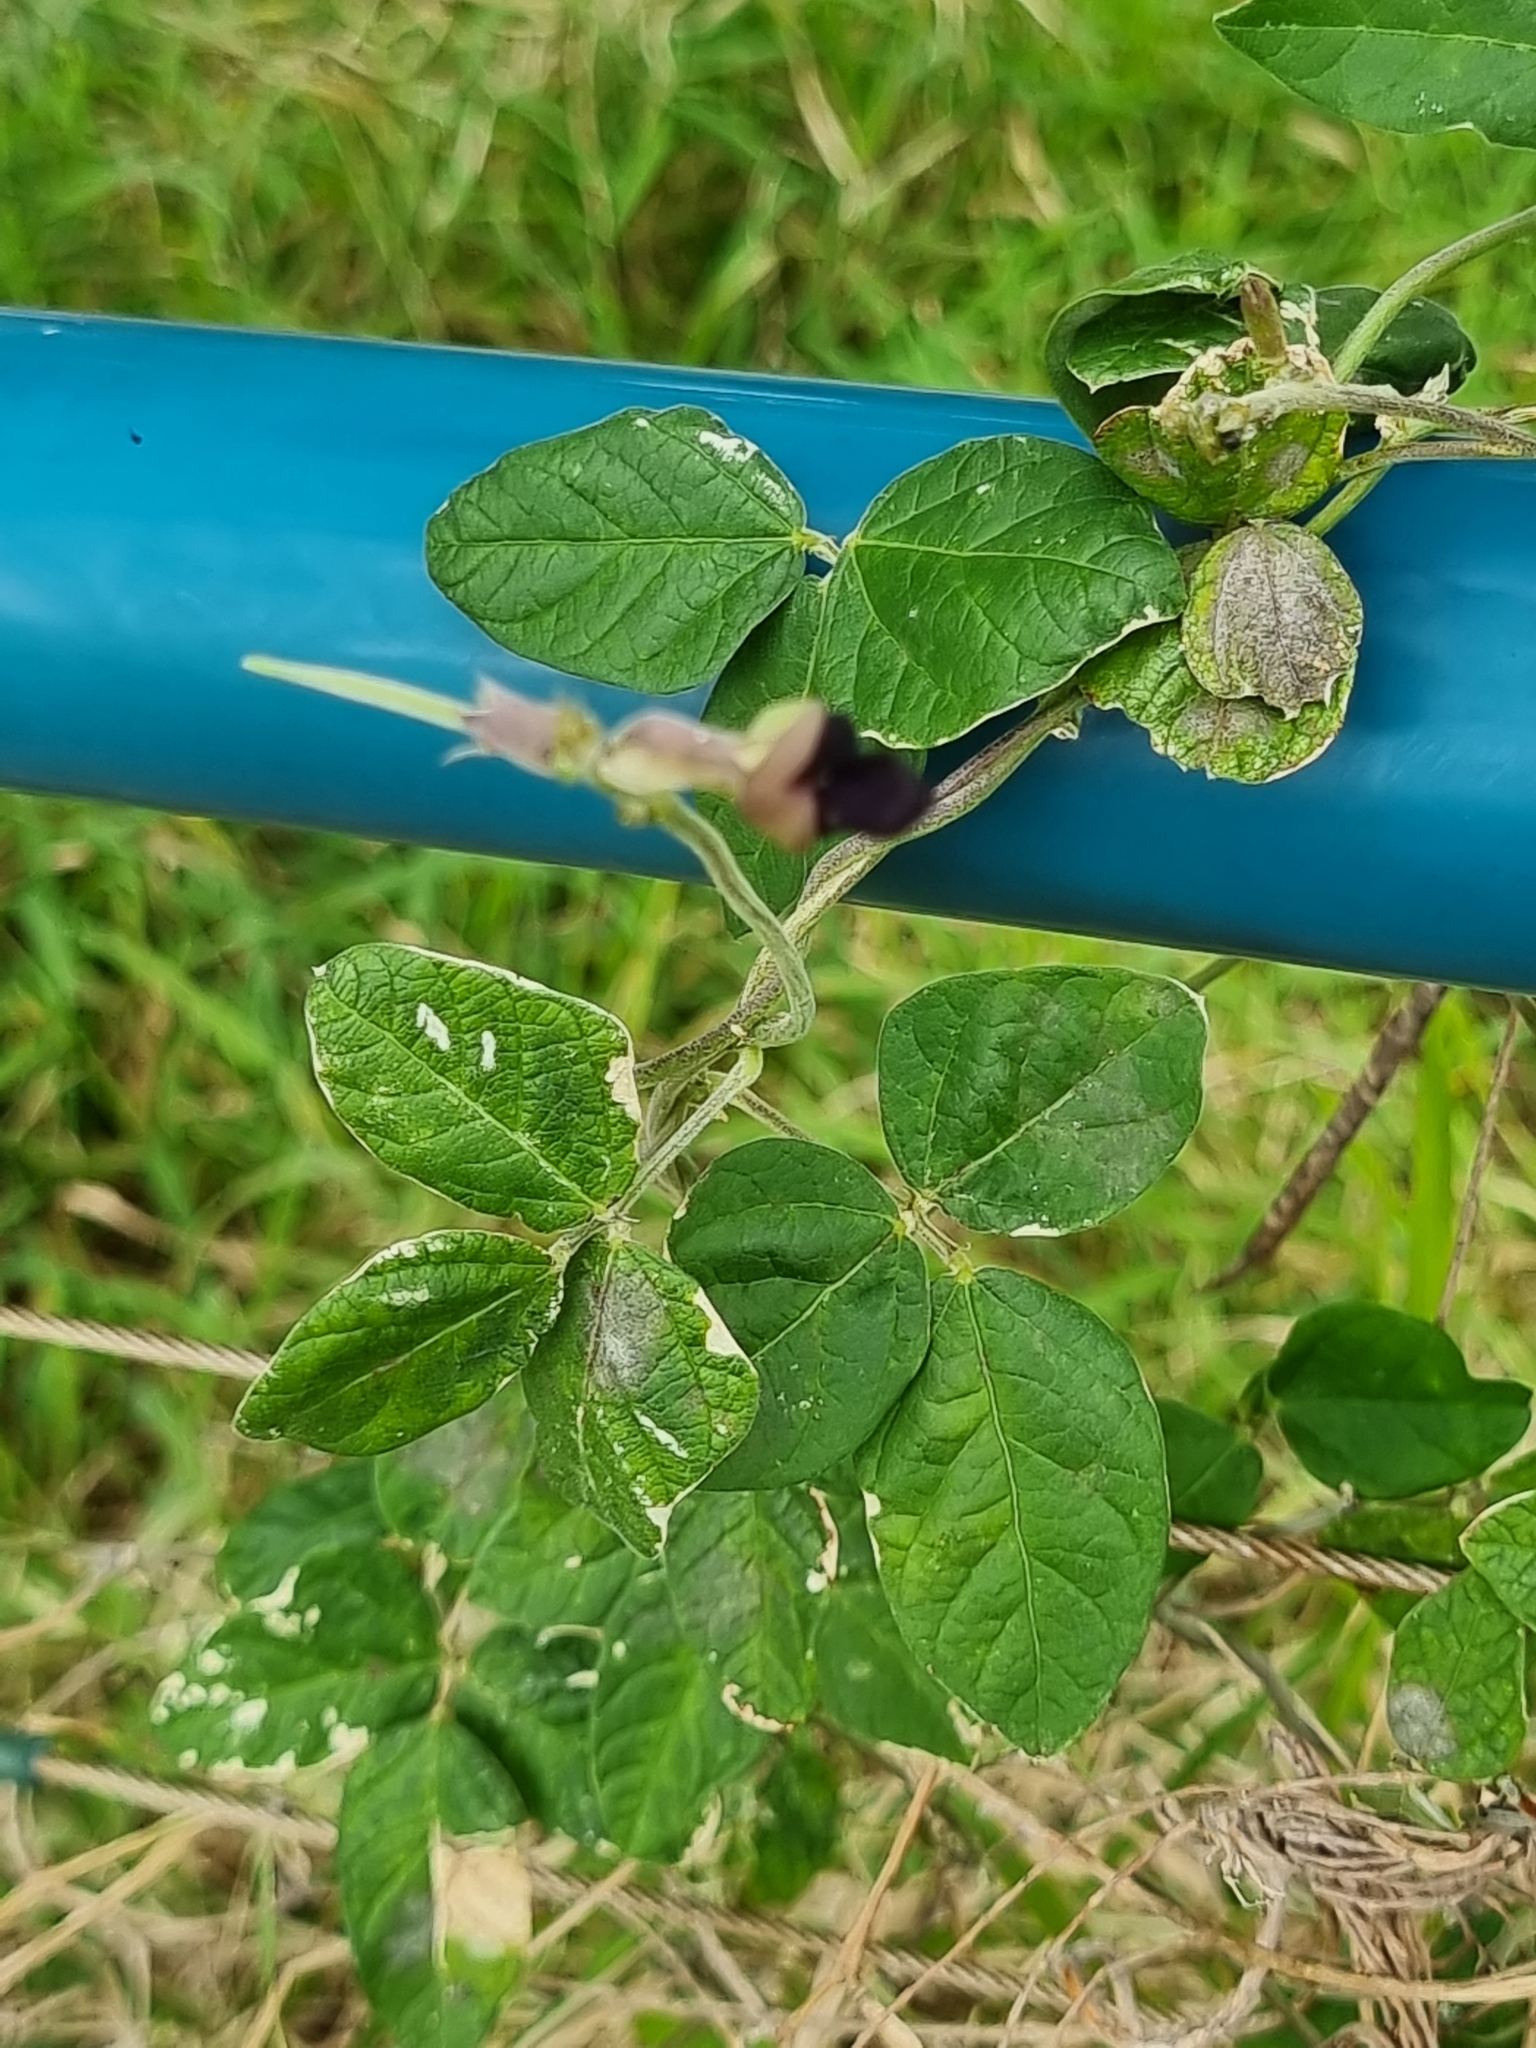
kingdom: Plantae
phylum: Tracheophyta
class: Magnoliopsida
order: Fabales
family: Fabaceae
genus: Macroptilium
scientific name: Macroptilium atropurpureum
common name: Purple bushbean
